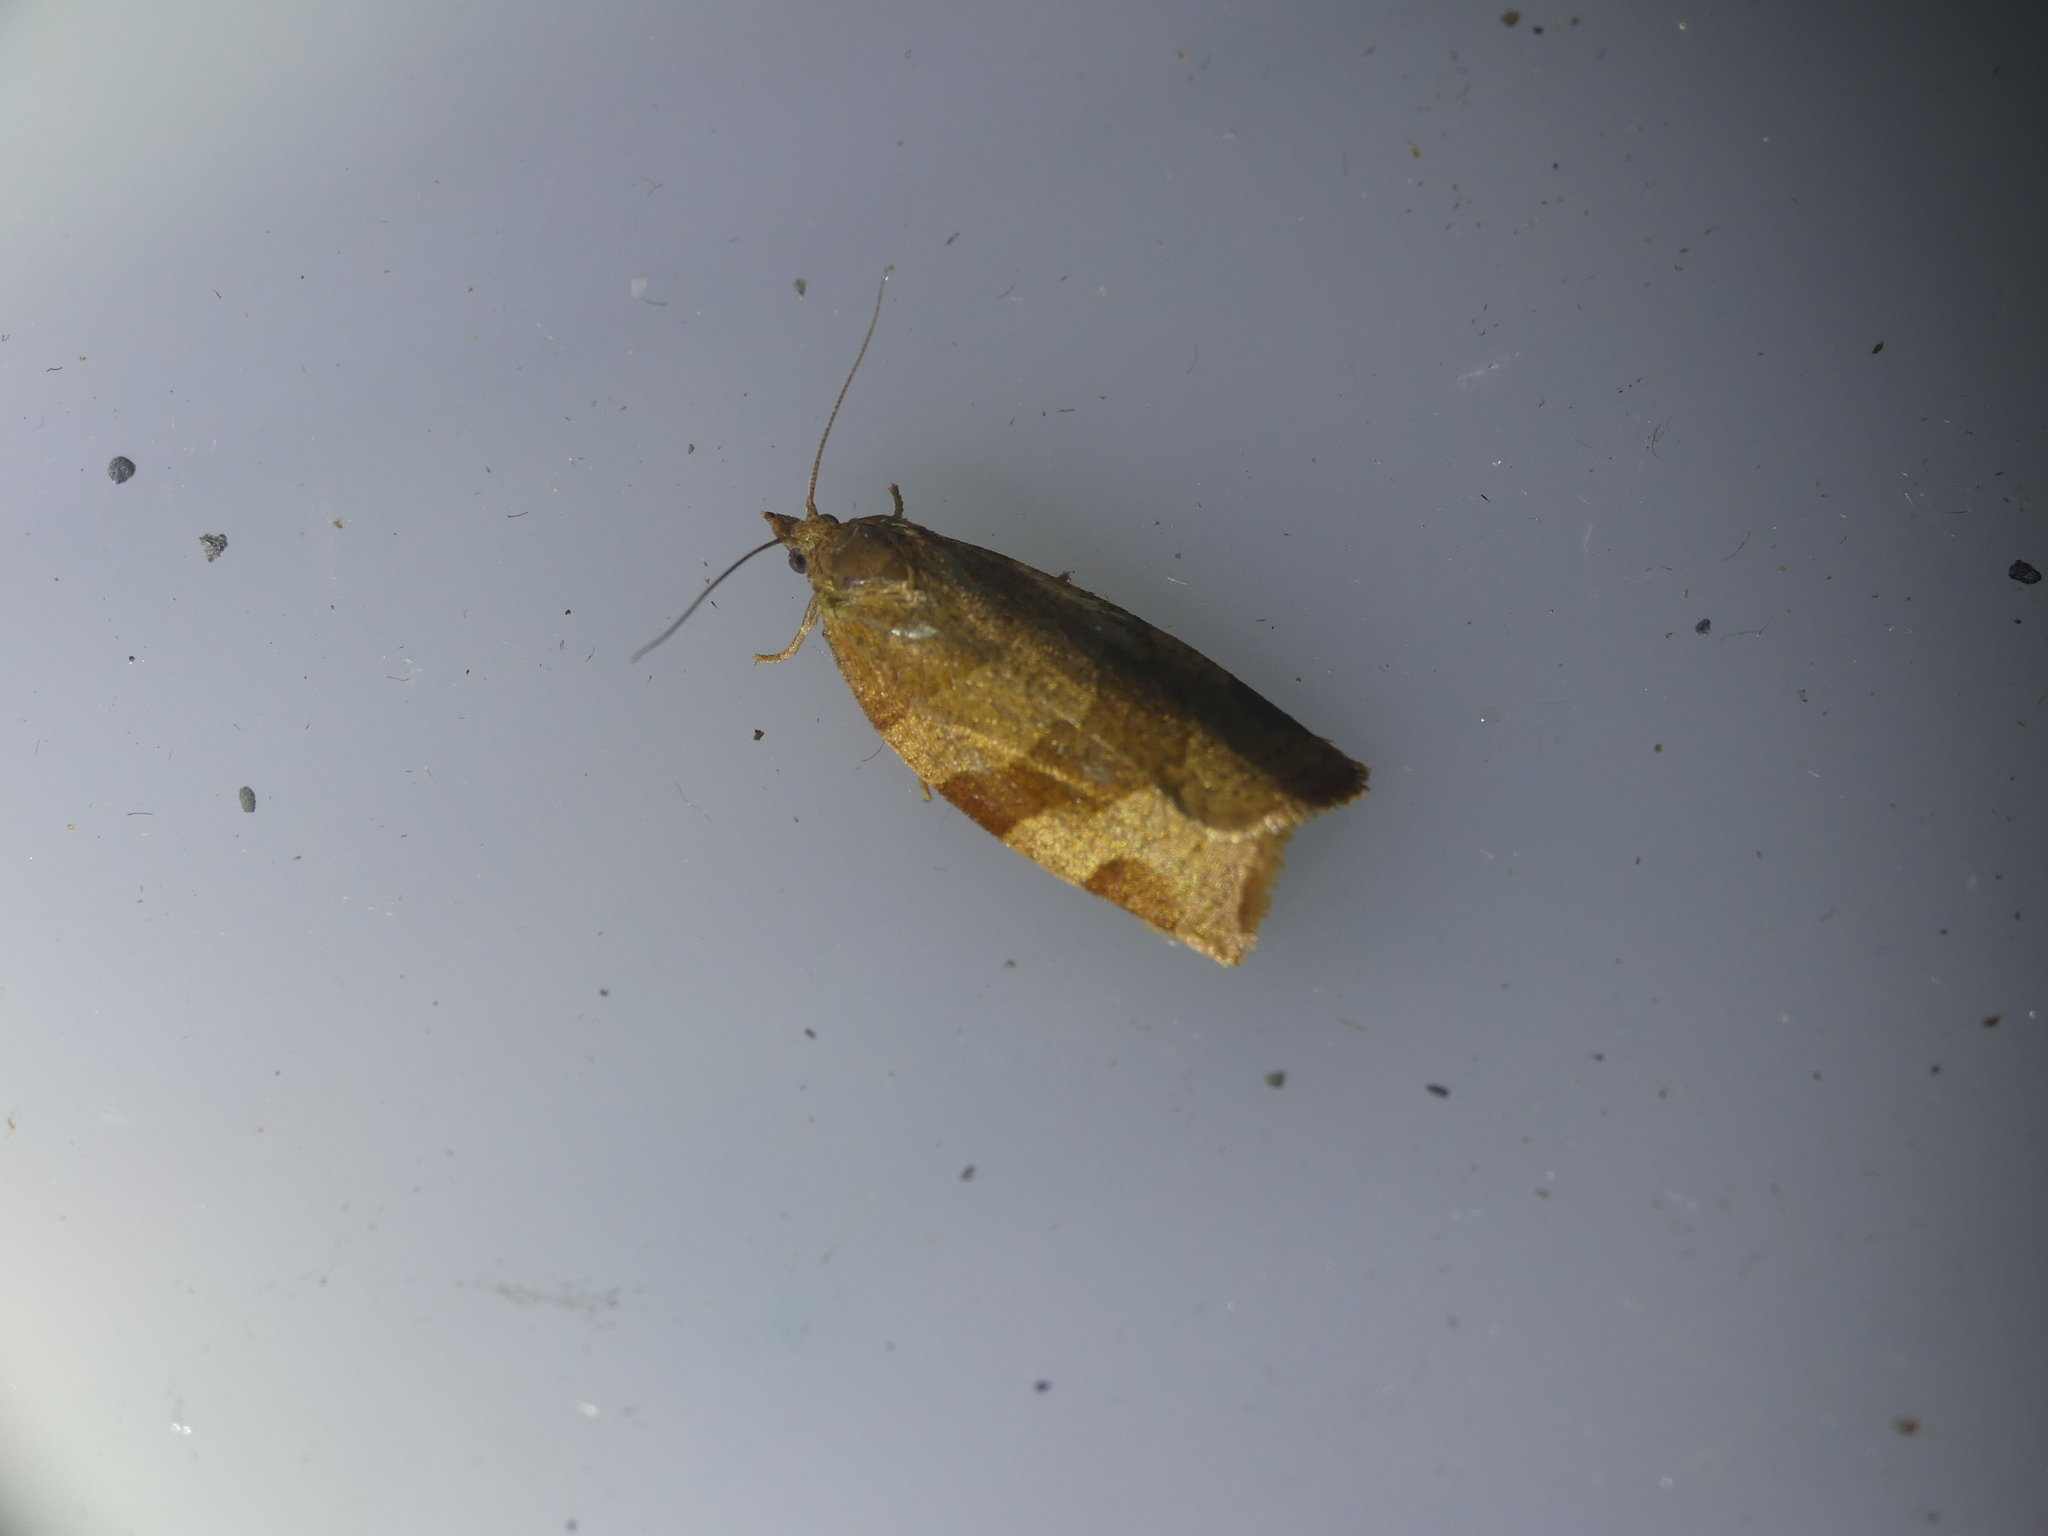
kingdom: Animalia
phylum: Arthropoda
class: Insecta
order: Lepidoptera
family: Tortricidae
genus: Pandemis
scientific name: Pandemis cinnamomeana
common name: White-faced twist
